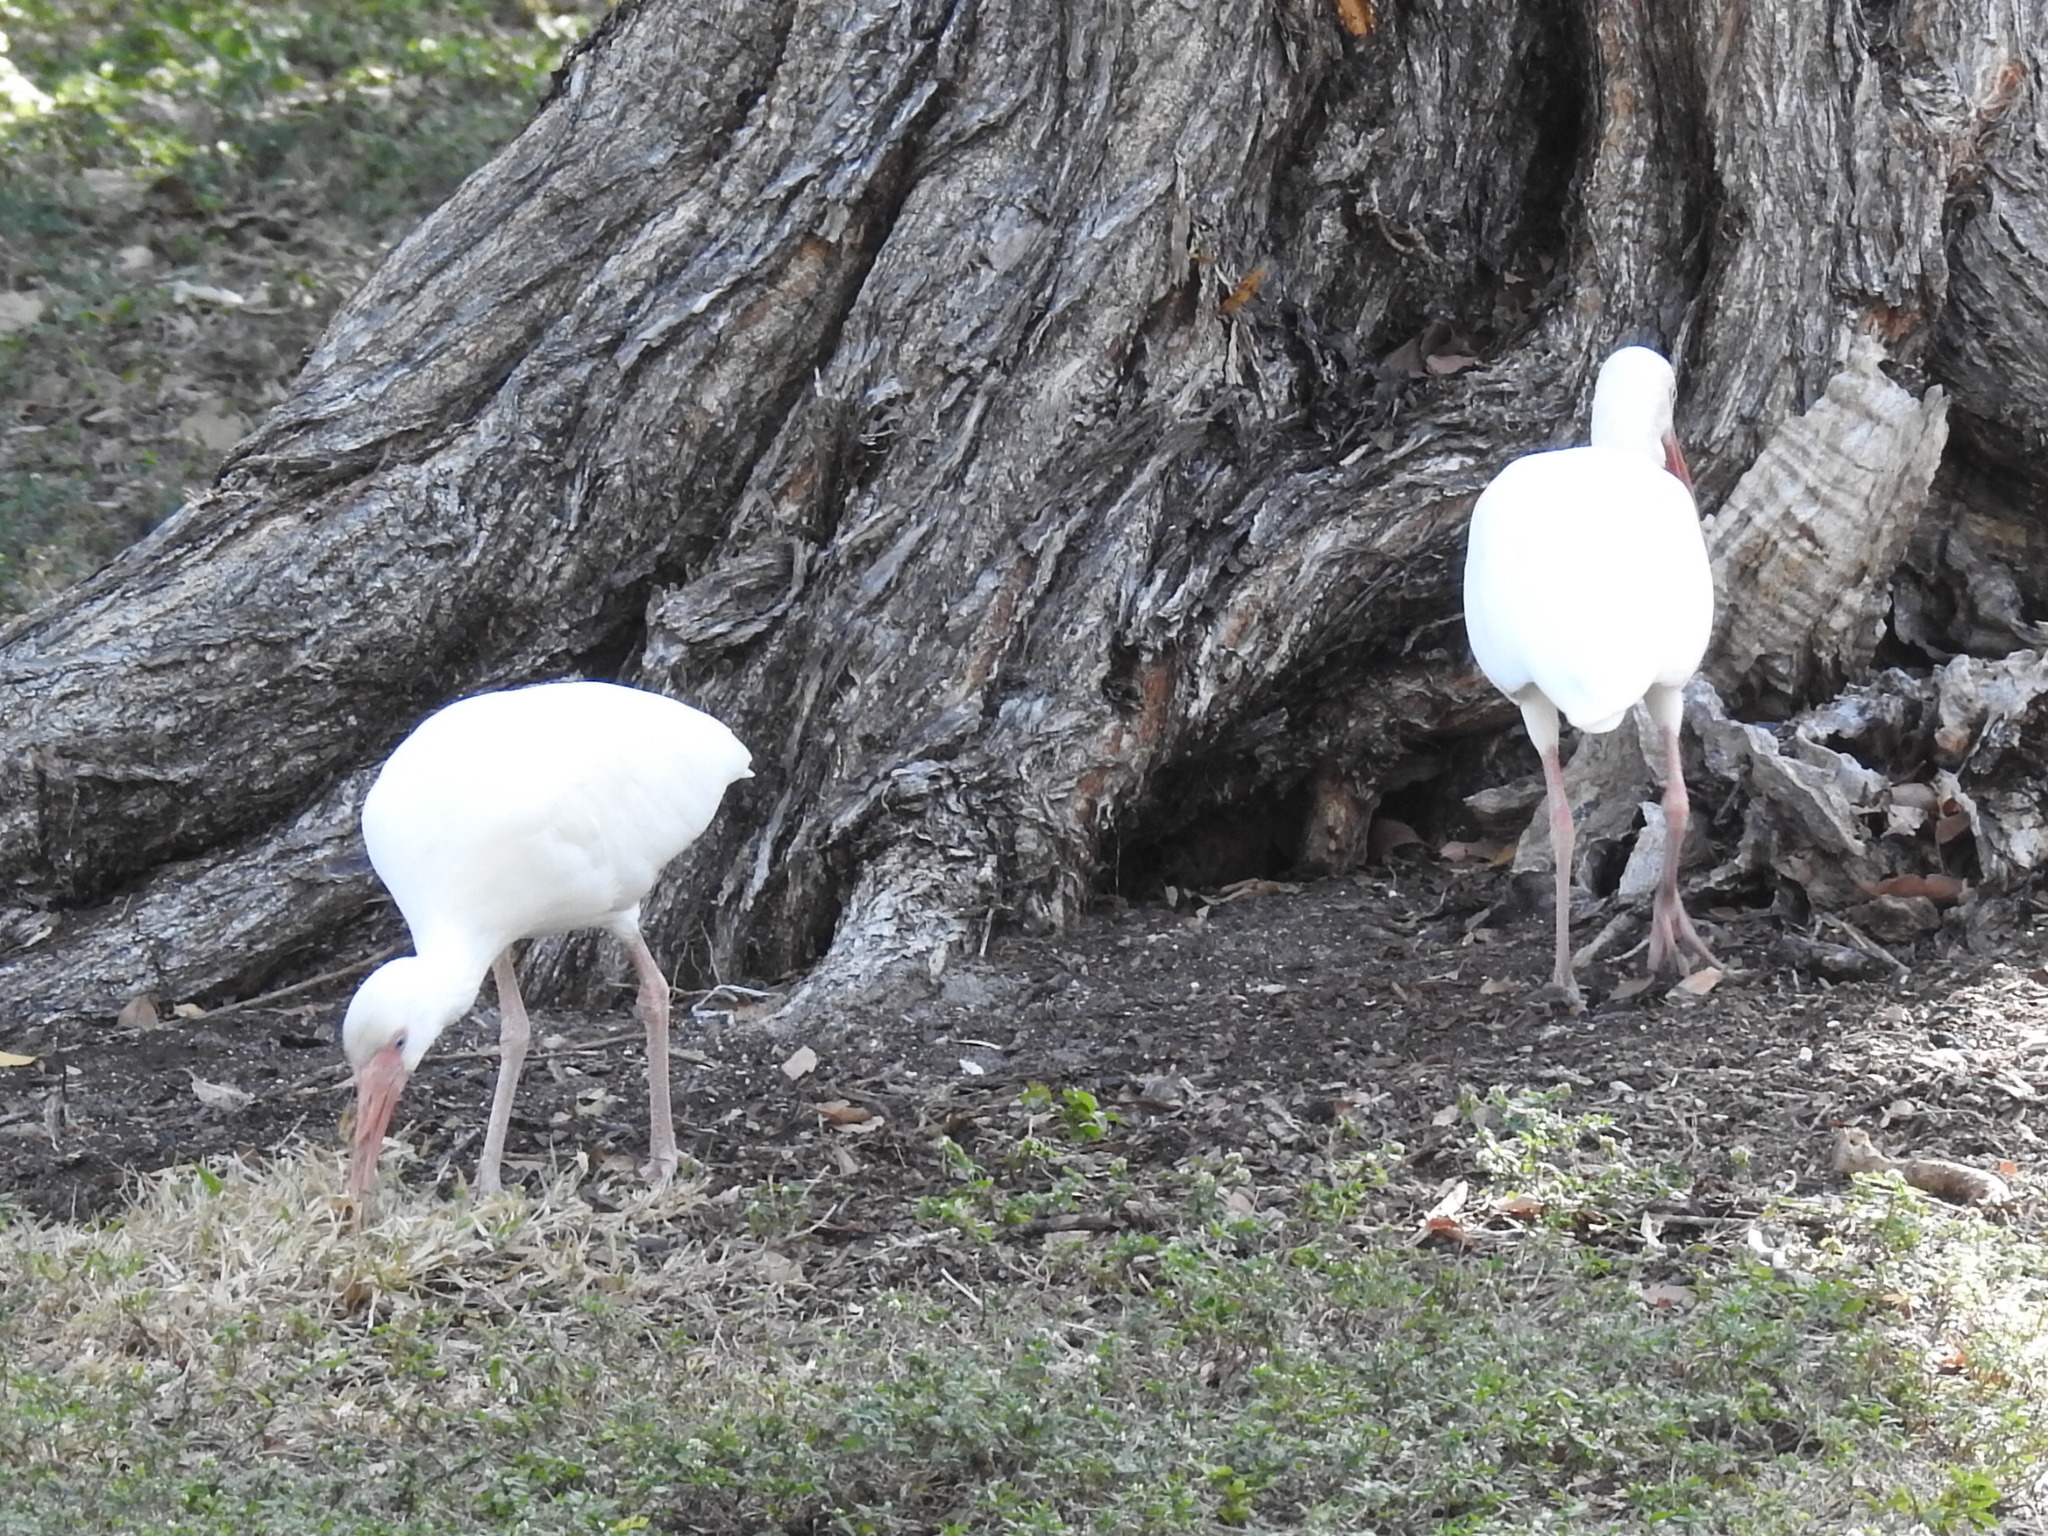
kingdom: Animalia
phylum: Chordata
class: Aves
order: Pelecaniformes
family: Threskiornithidae
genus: Eudocimus
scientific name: Eudocimus albus
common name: White ibis
